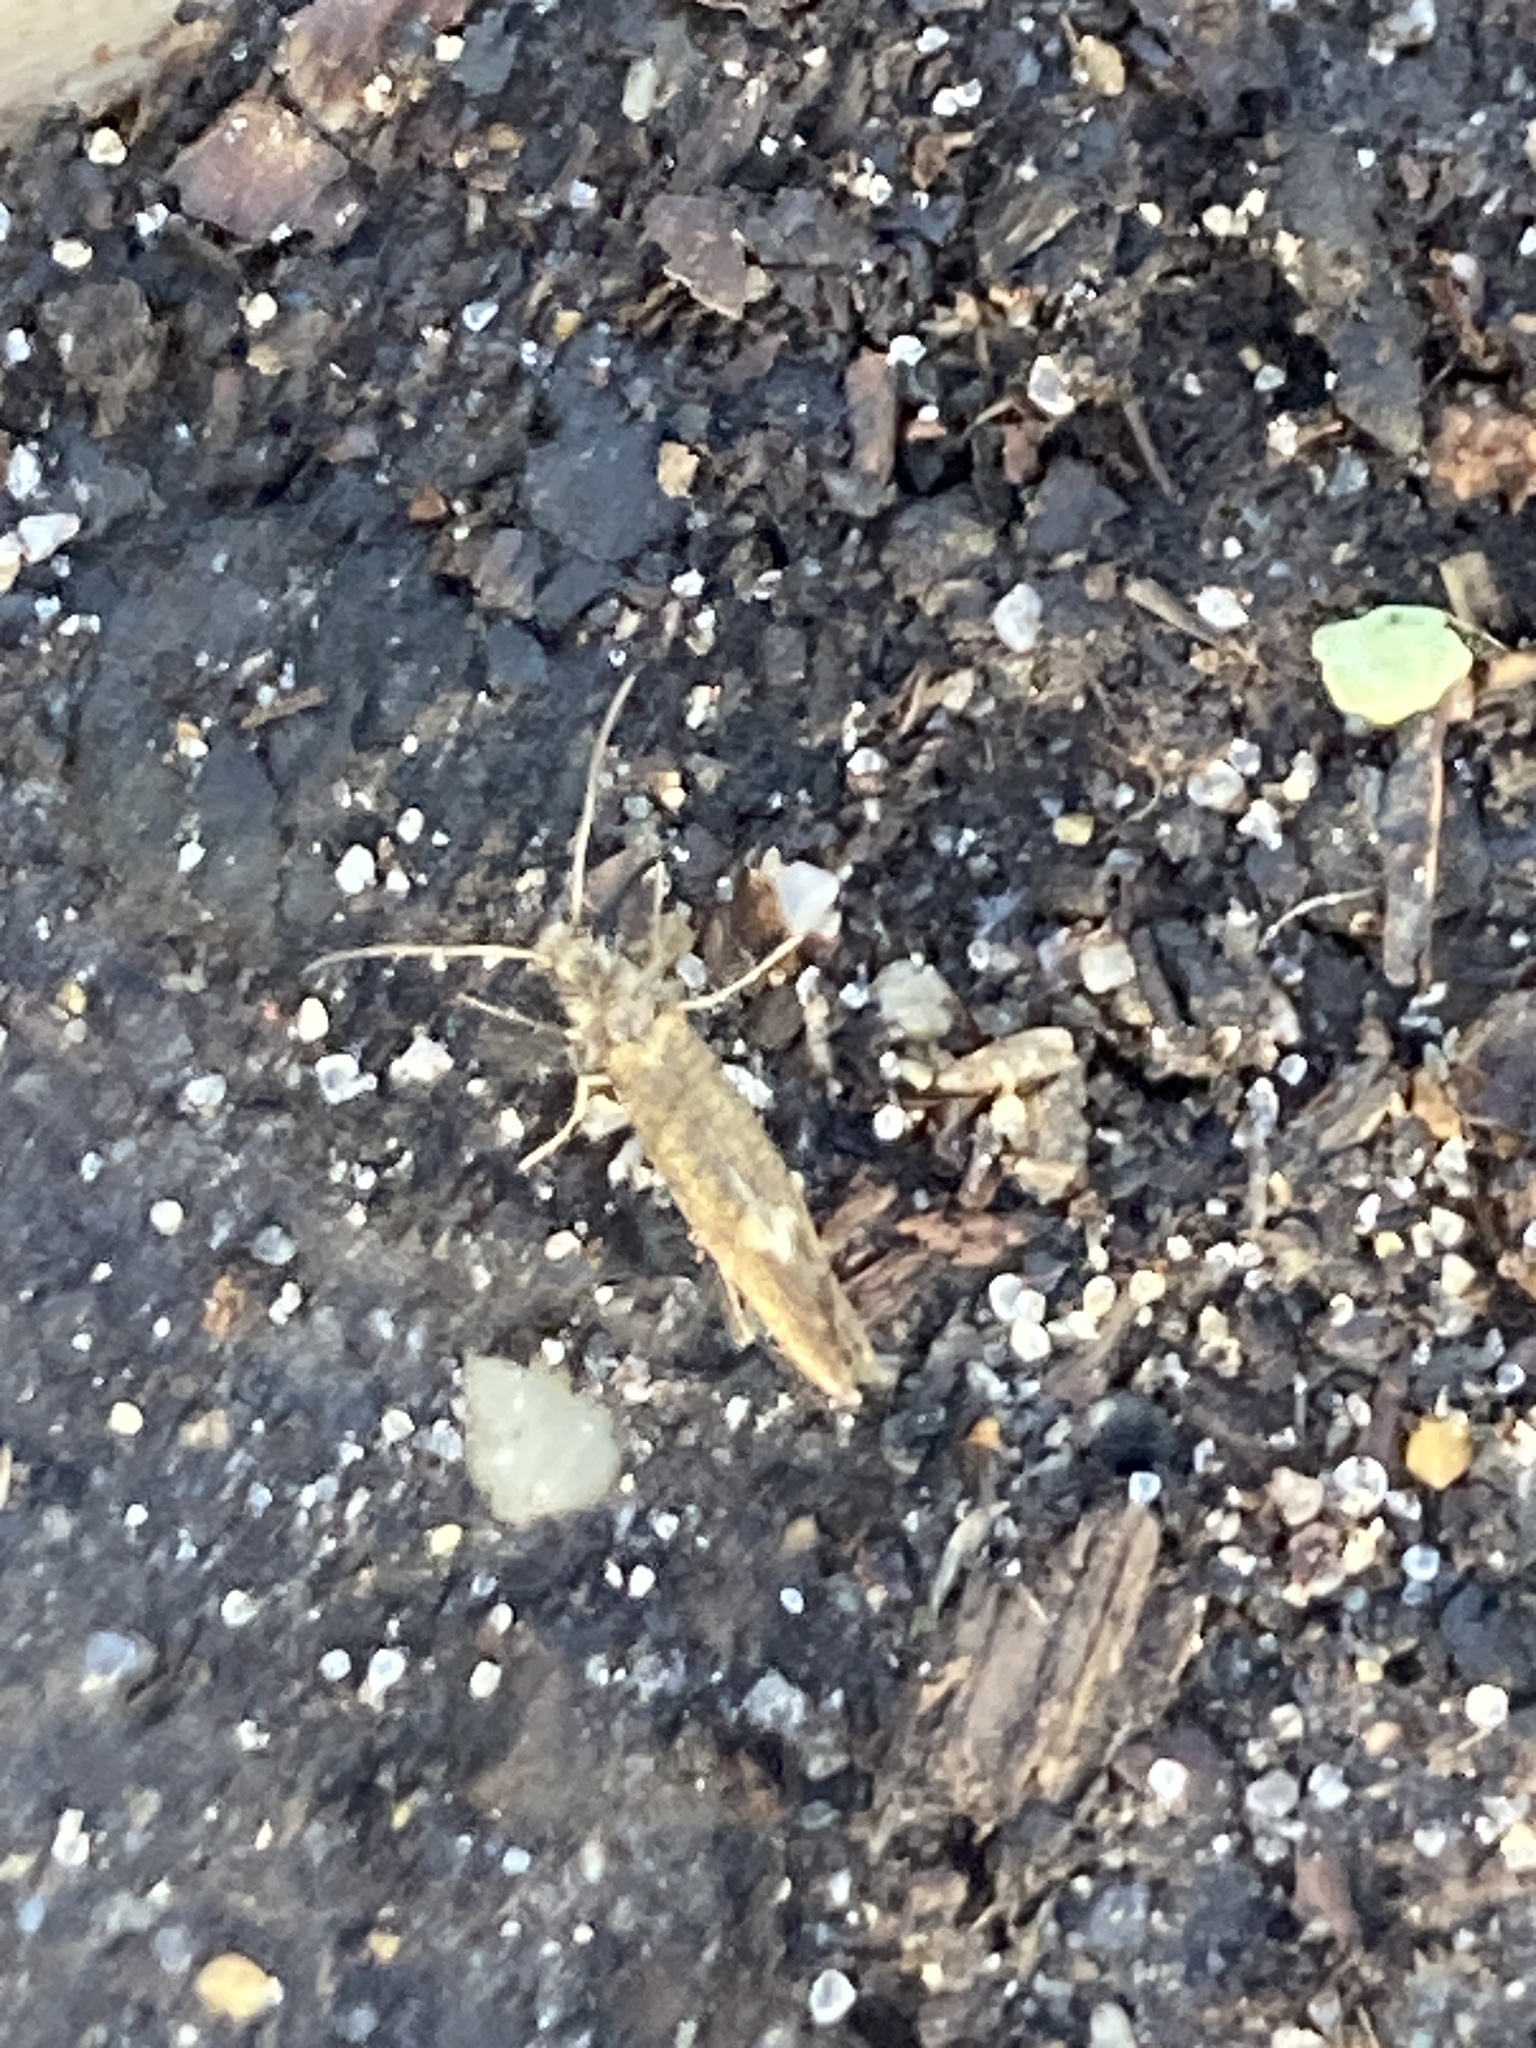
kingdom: Animalia
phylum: Arthropoda
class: Insecta
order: Lepidoptera
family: Eriocraniidae
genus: Dyseriocrania
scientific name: Dyseriocrania subpurpurella
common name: Common oak purple
